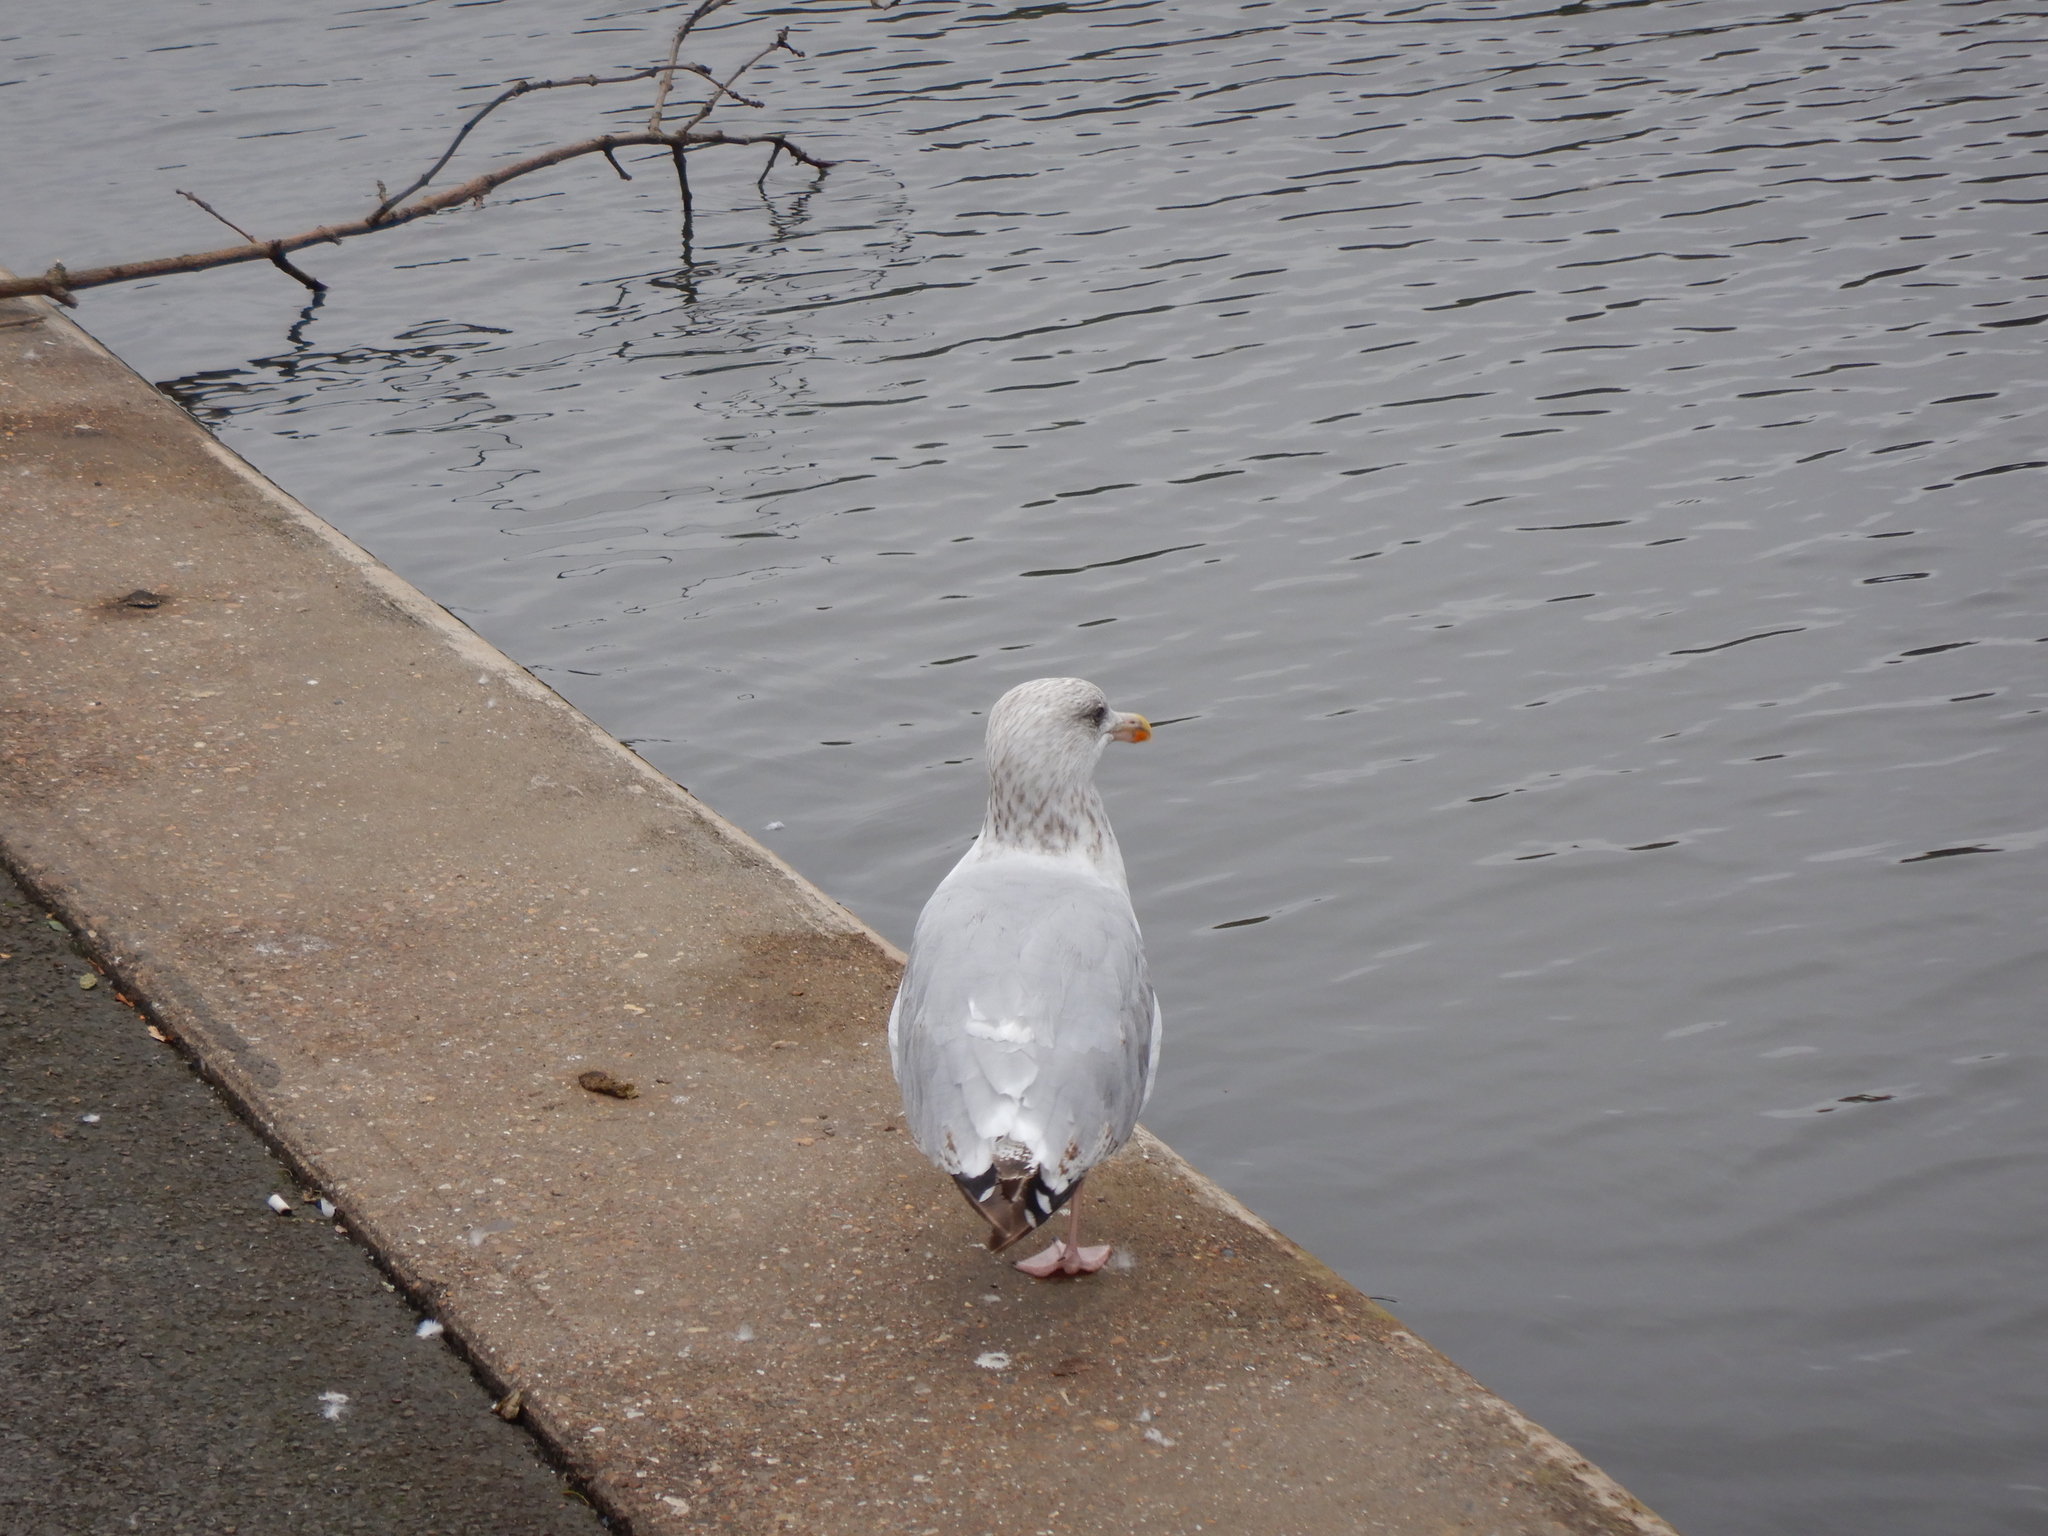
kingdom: Animalia
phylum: Chordata
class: Aves
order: Charadriiformes
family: Laridae
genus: Larus
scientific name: Larus argentatus
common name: Herring gull
